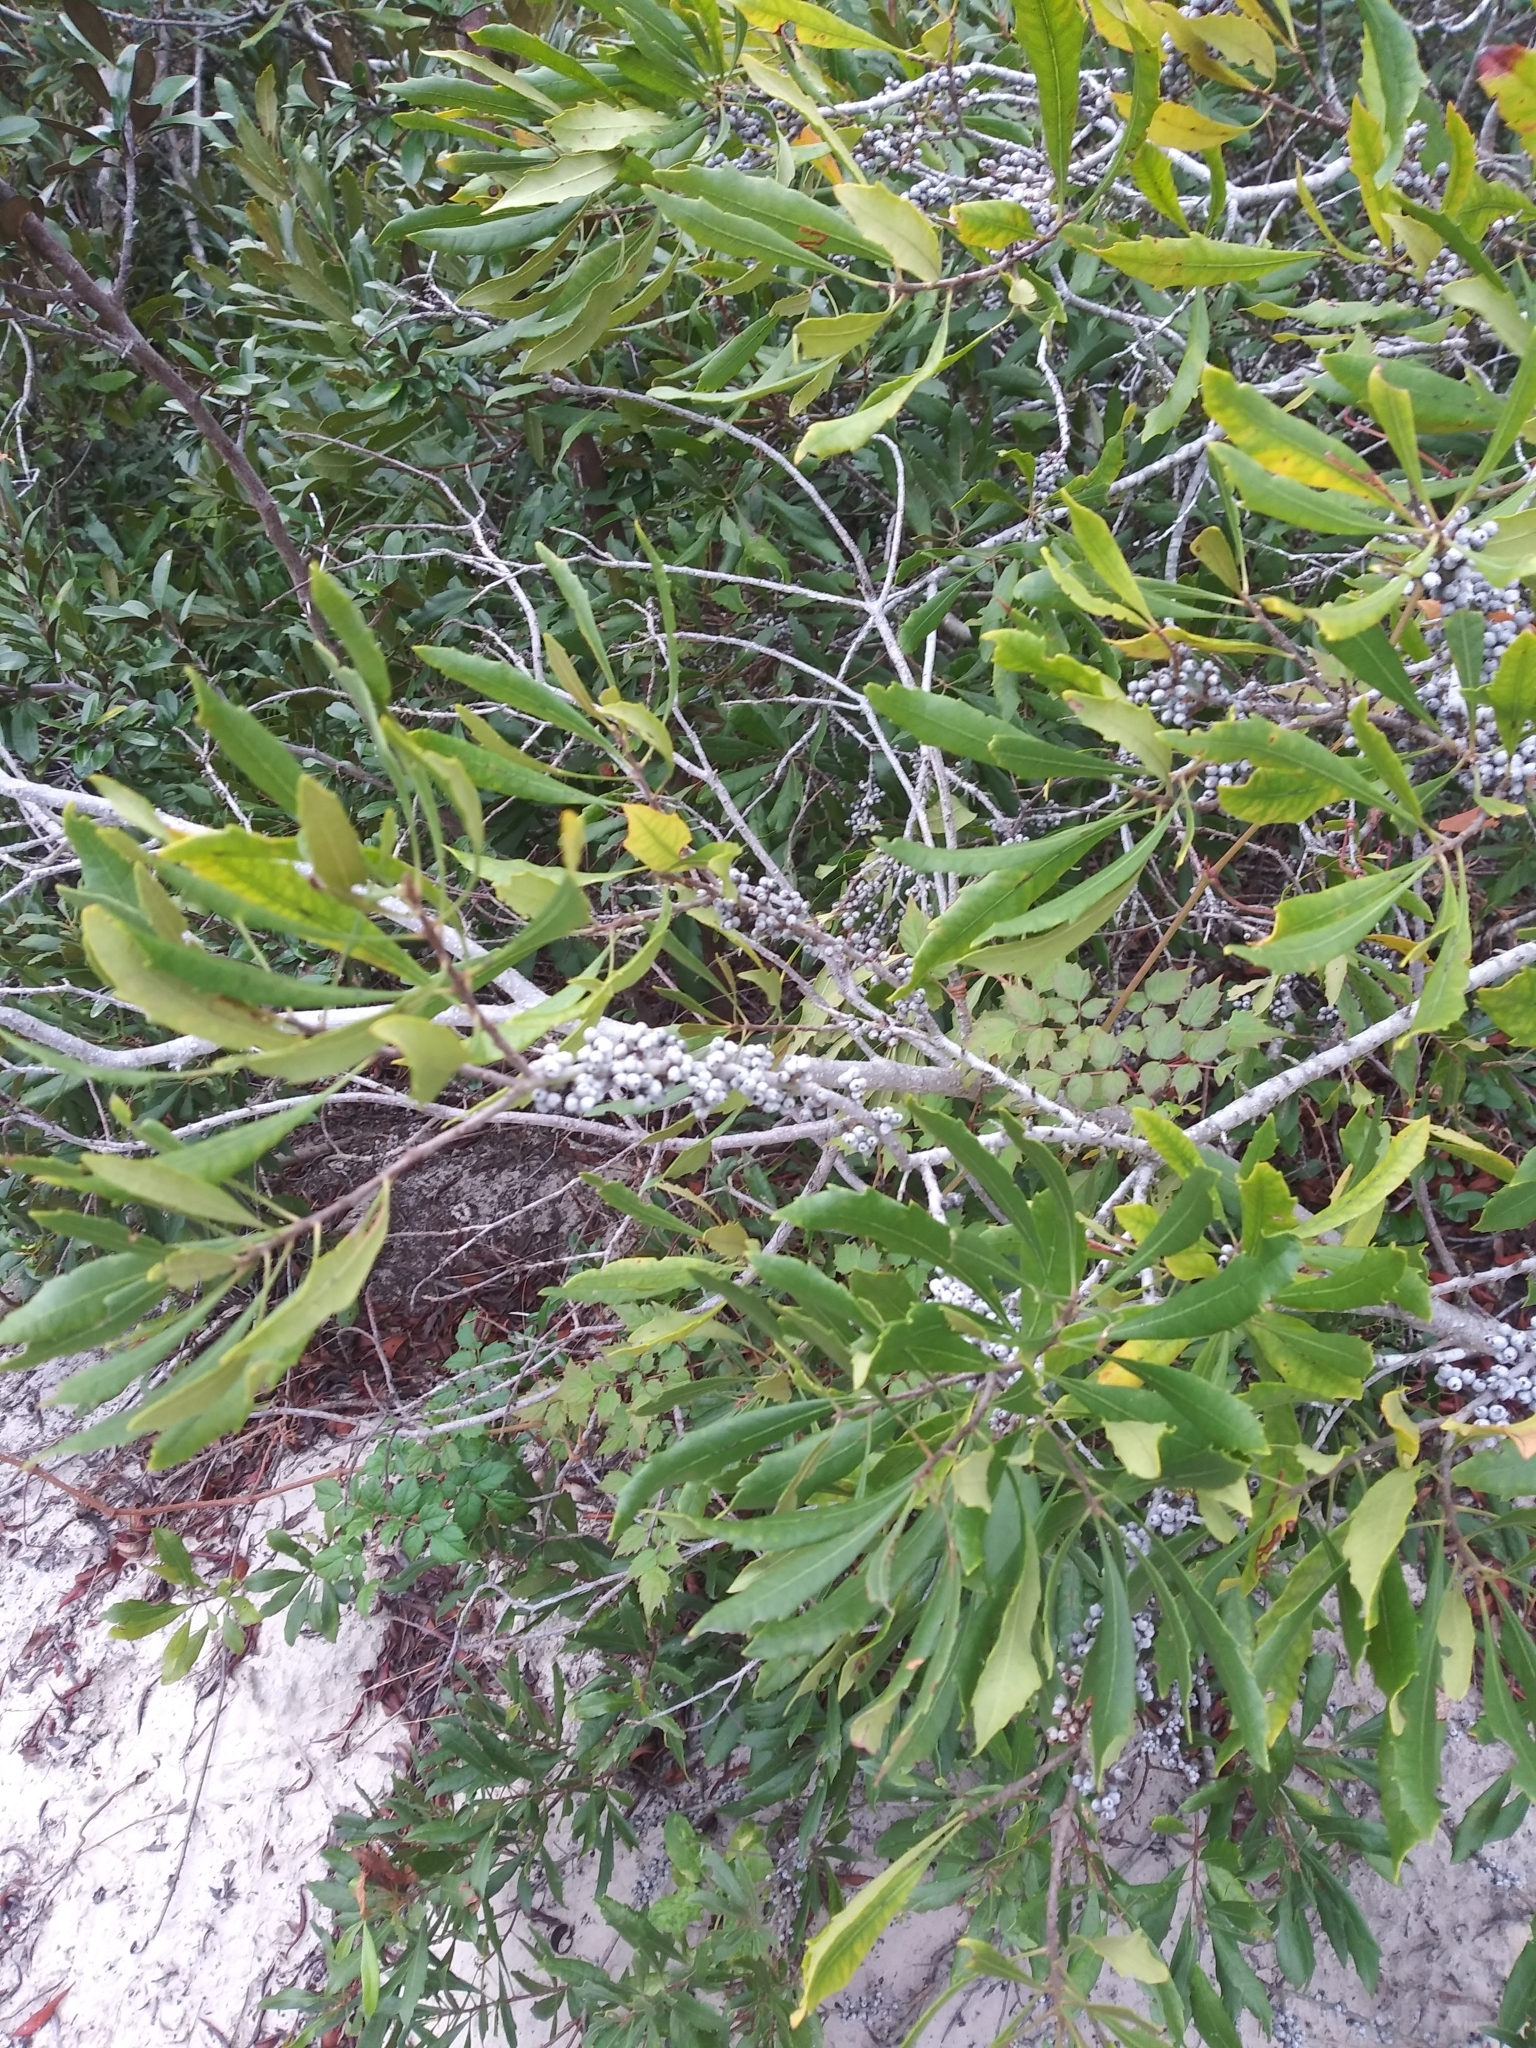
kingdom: Plantae
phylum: Tracheophyta
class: Magnoliopsida
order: Fagales
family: Myricaceae
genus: Morella
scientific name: Morella cerifera
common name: Wax myrtle
